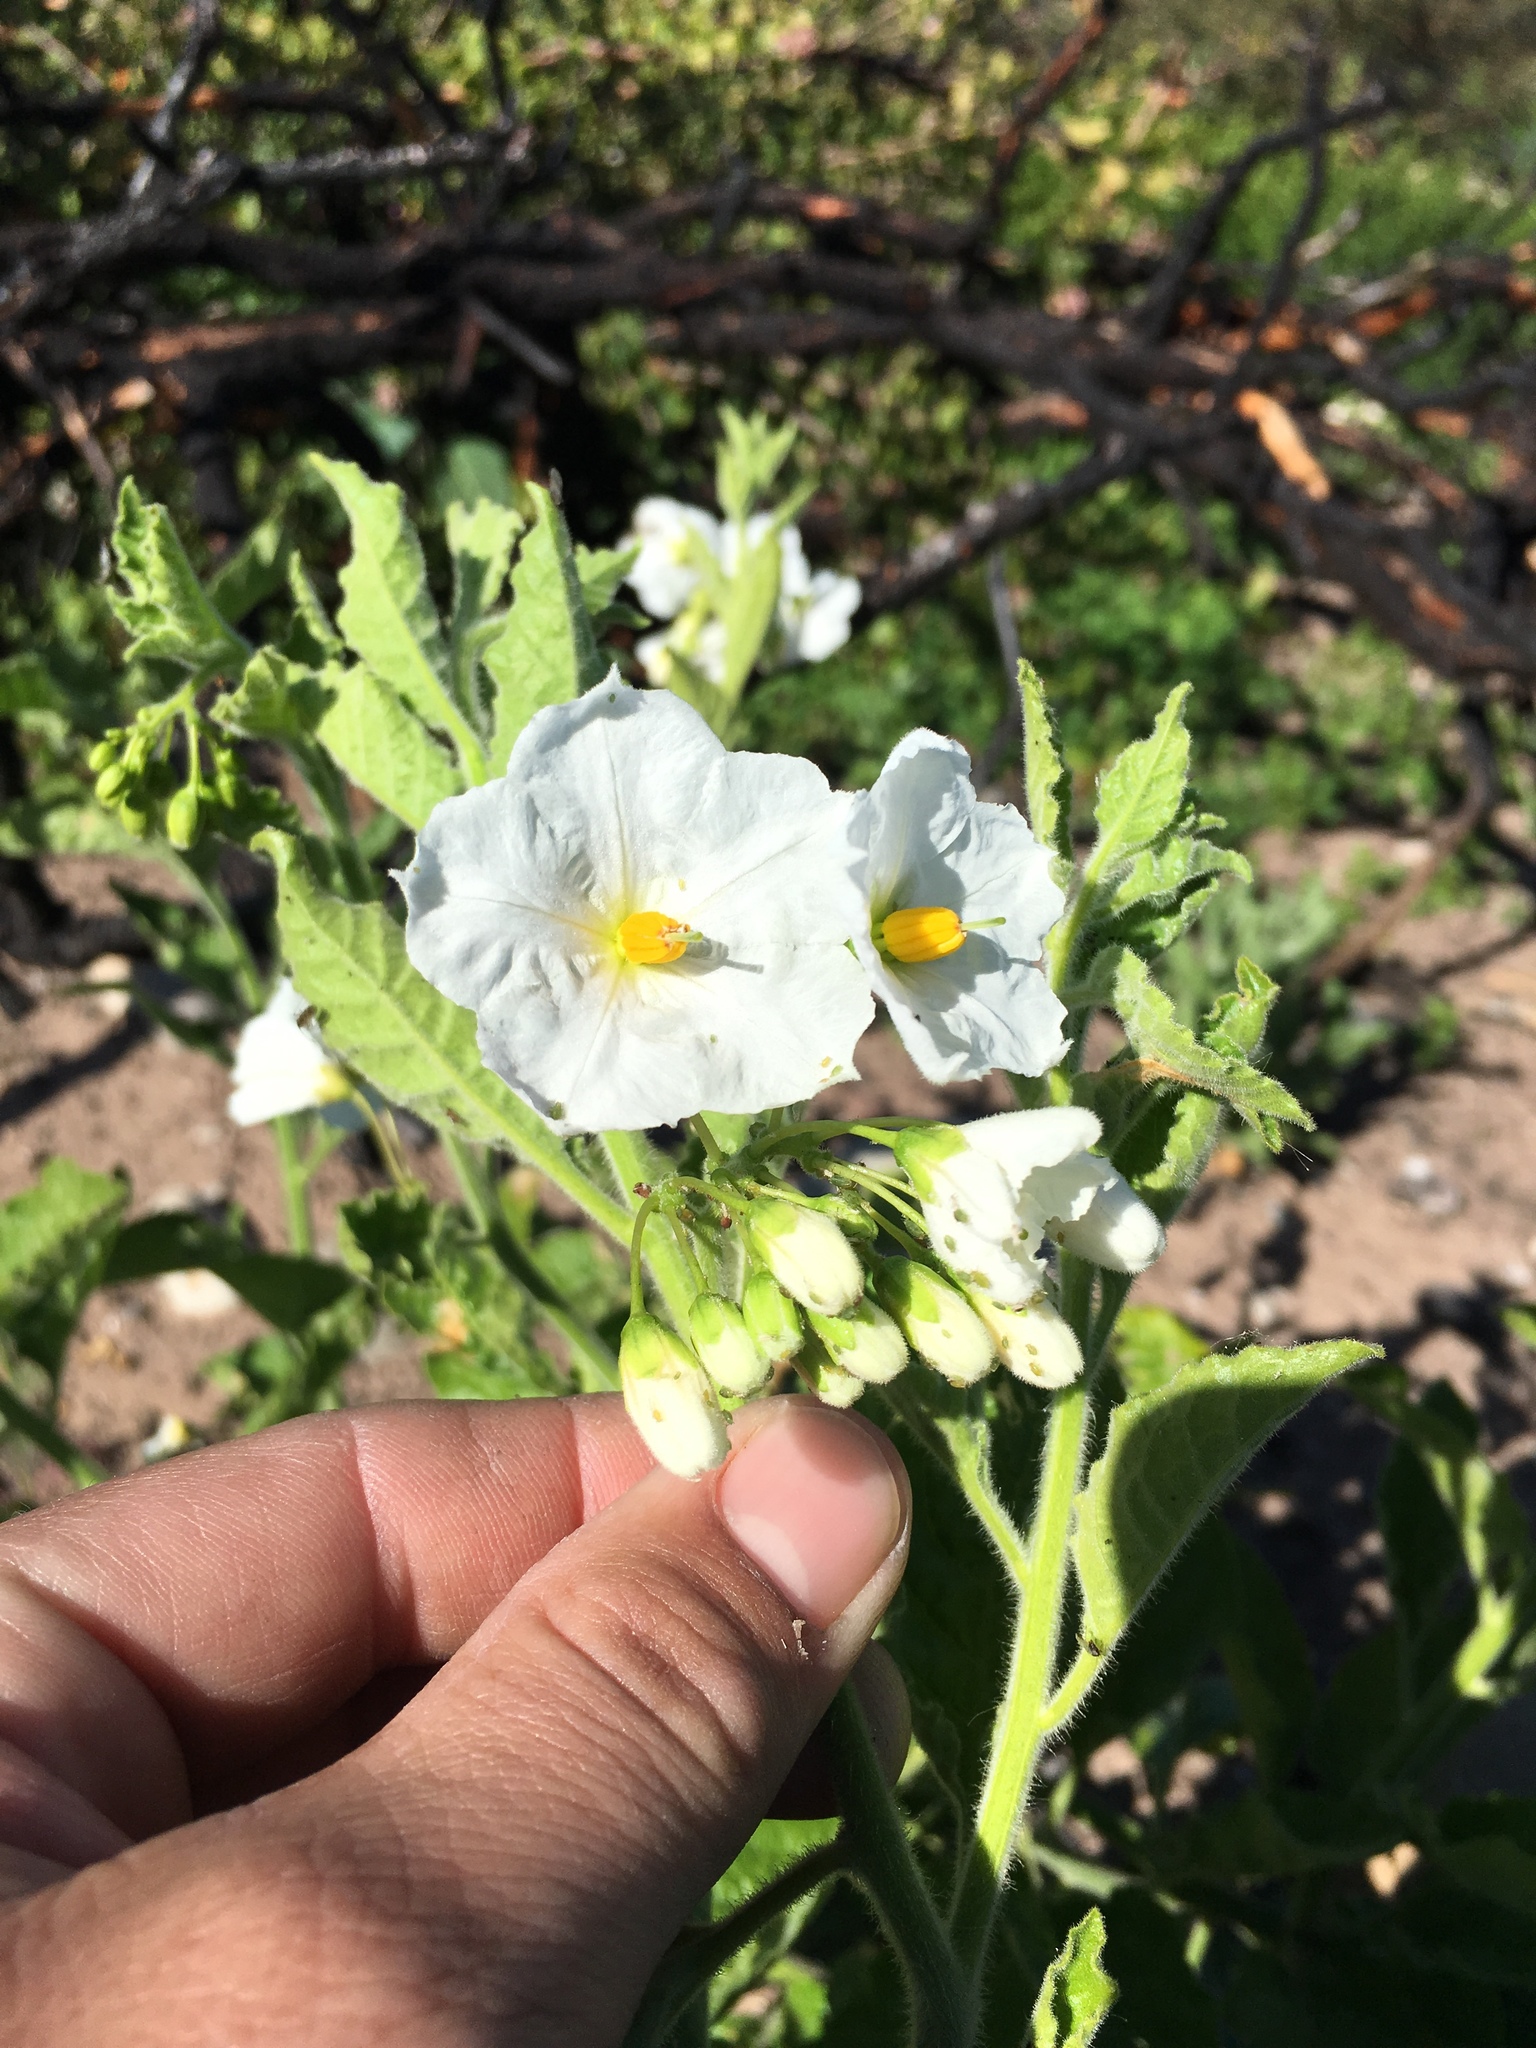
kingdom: Plantae
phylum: Tracheophyta
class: Magnoliopsida
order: Solanales
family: Solanaceae
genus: Solanum
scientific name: Solanum umbelliferum
